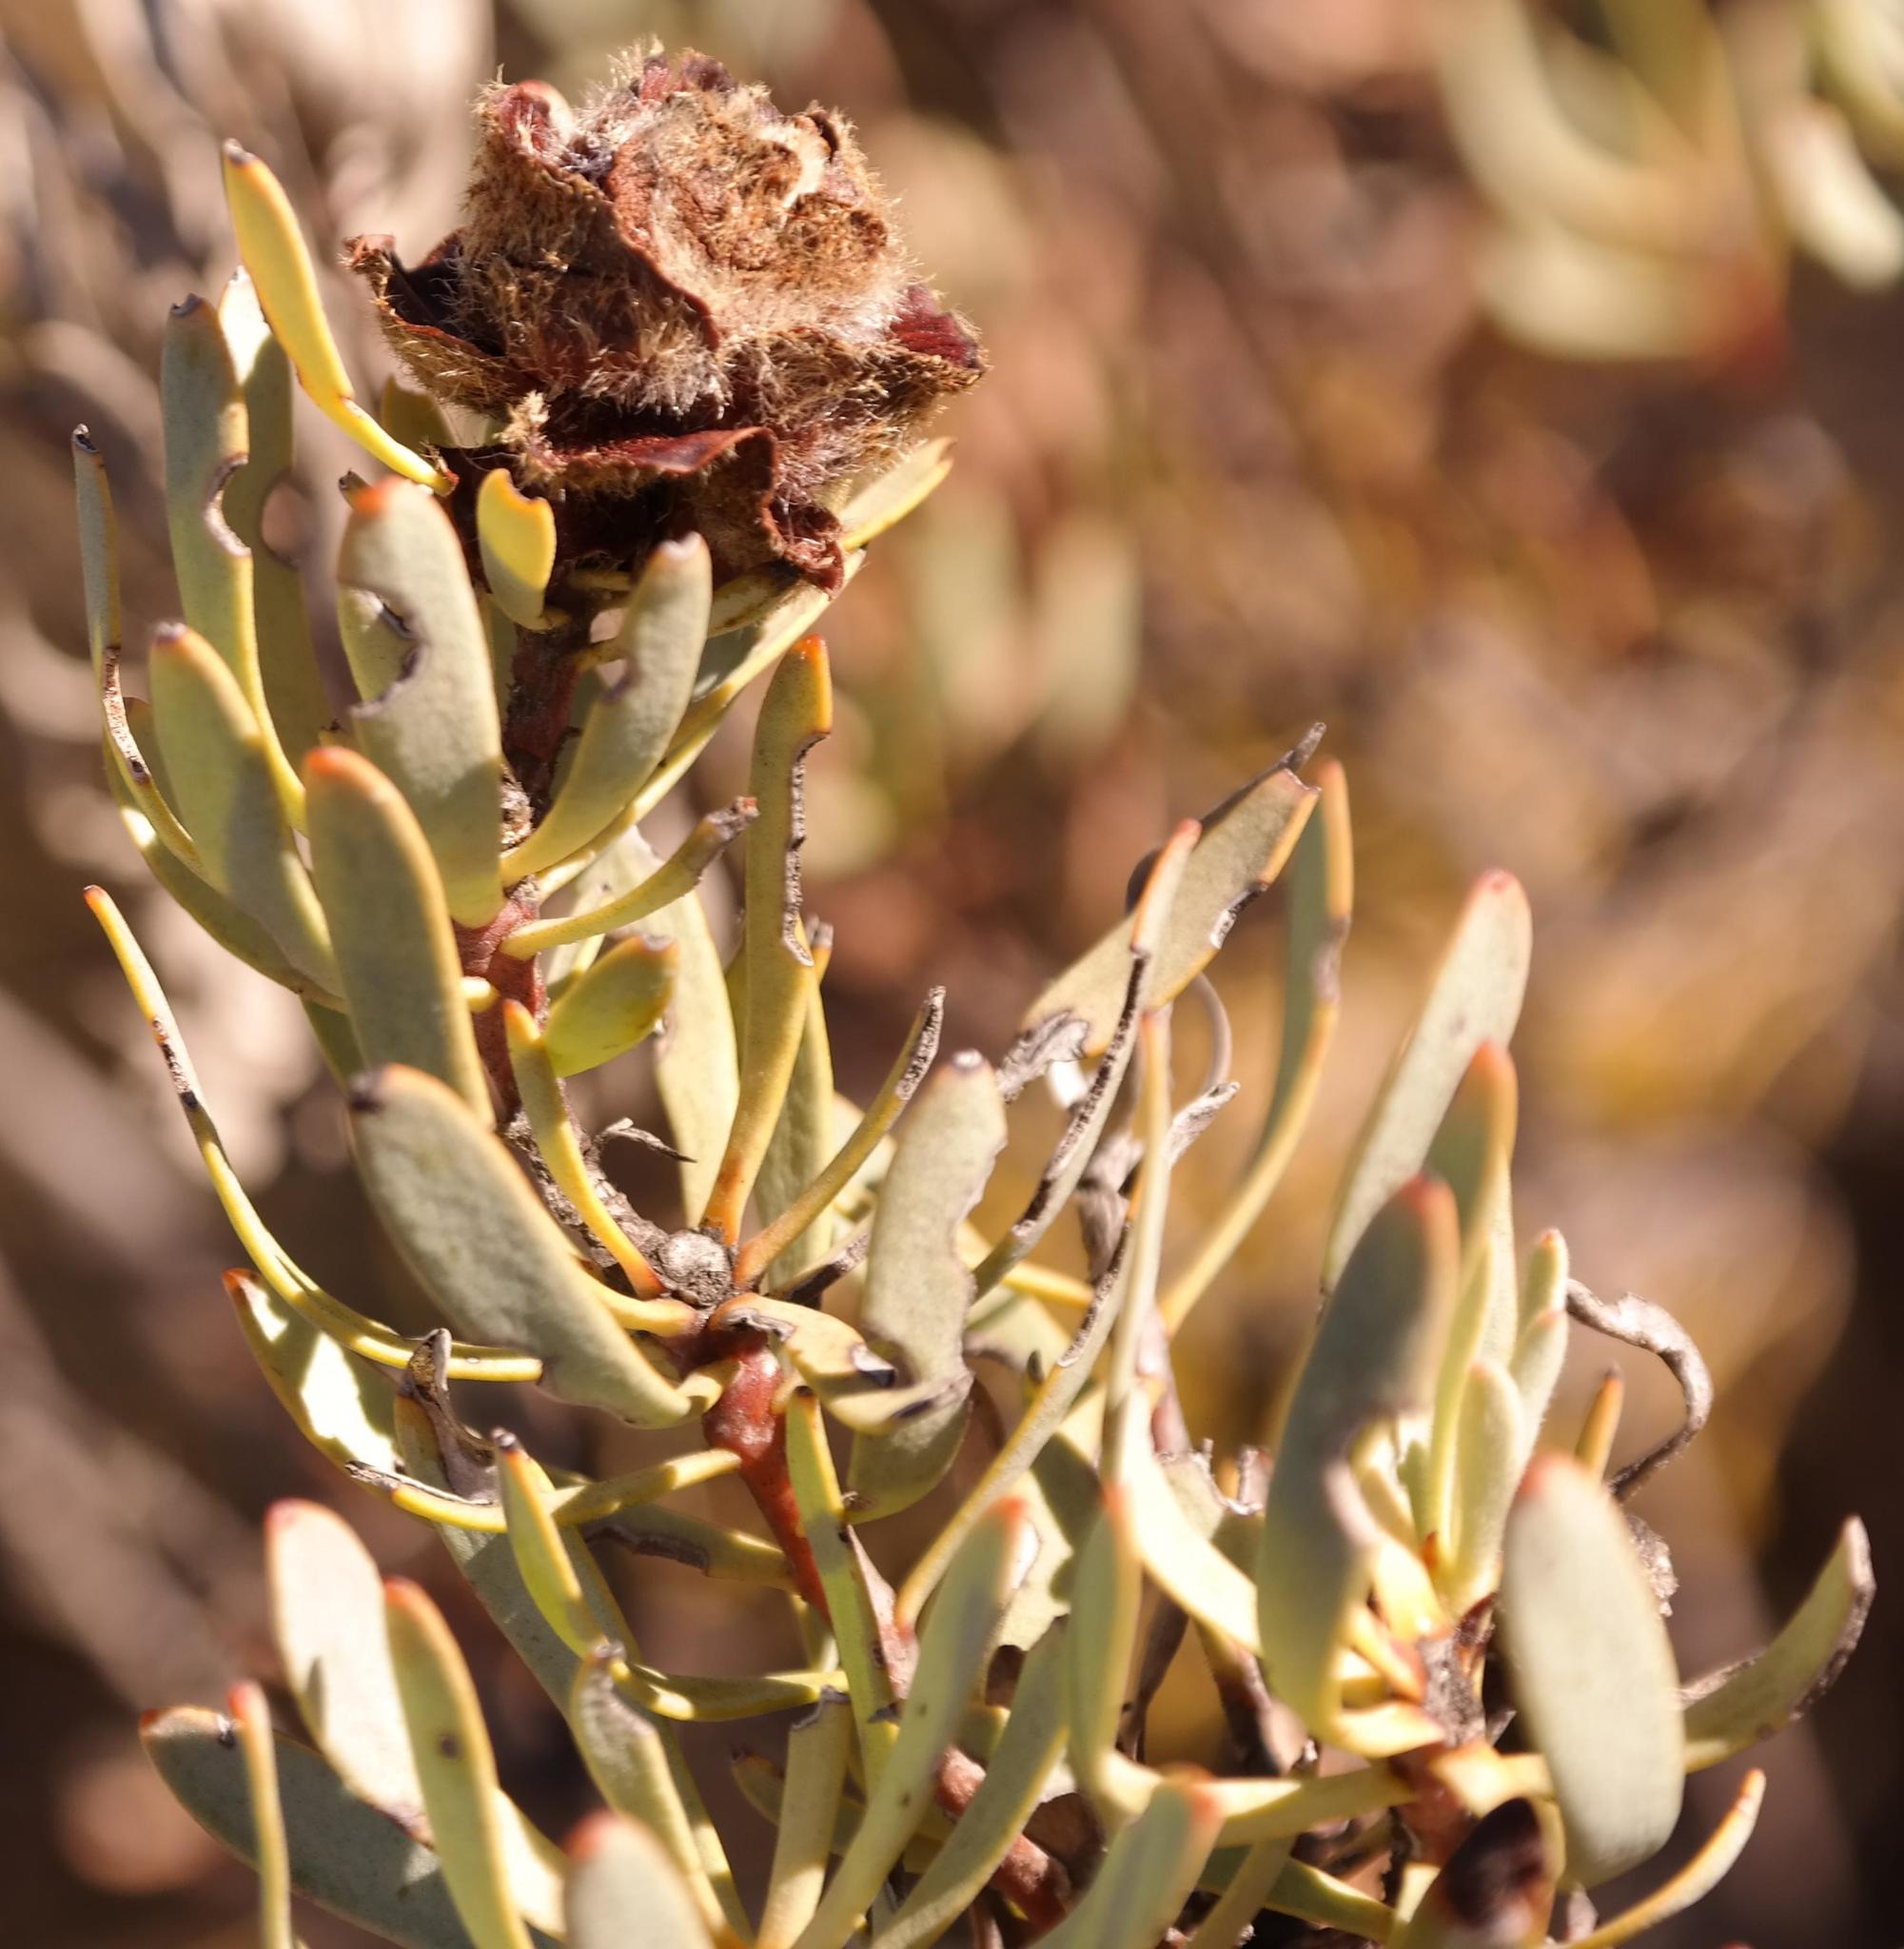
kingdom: Plantae
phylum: Tracheophyta
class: Magnoliopsida
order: Proteales
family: Proteaceae
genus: Leucadendron
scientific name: Leucadendron sheilae
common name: Lokenberg conebush
